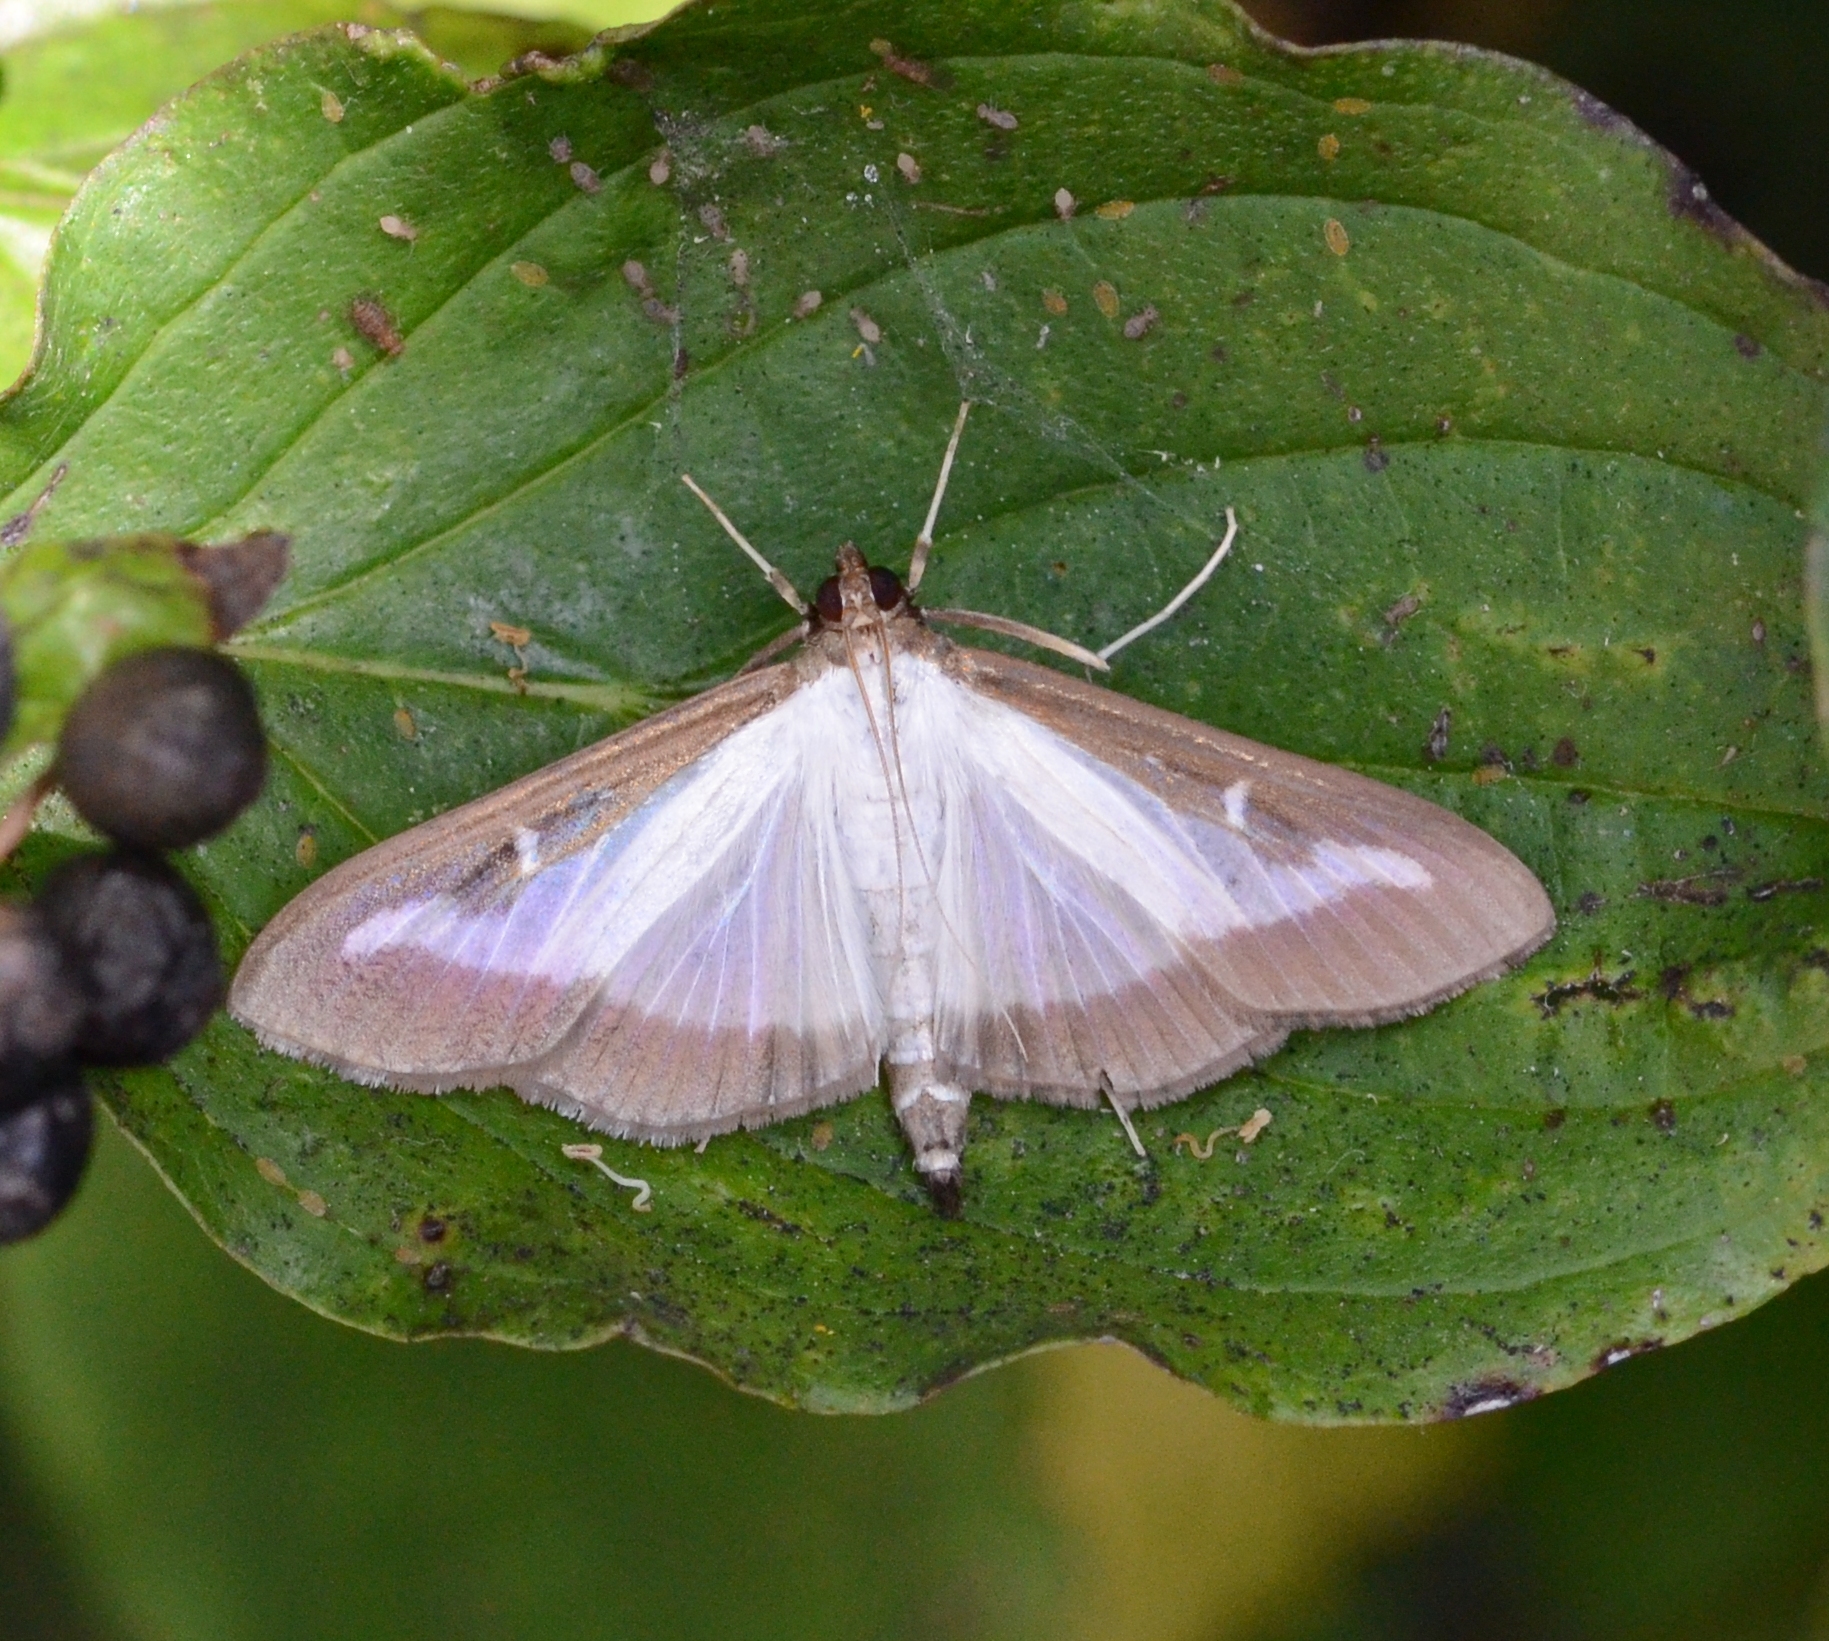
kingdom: Animalia
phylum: Arthropoda
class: Insecta
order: Lepidoptera
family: Crambidae
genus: Cydalima
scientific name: Cydalima perspectalis
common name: Box tree moth
